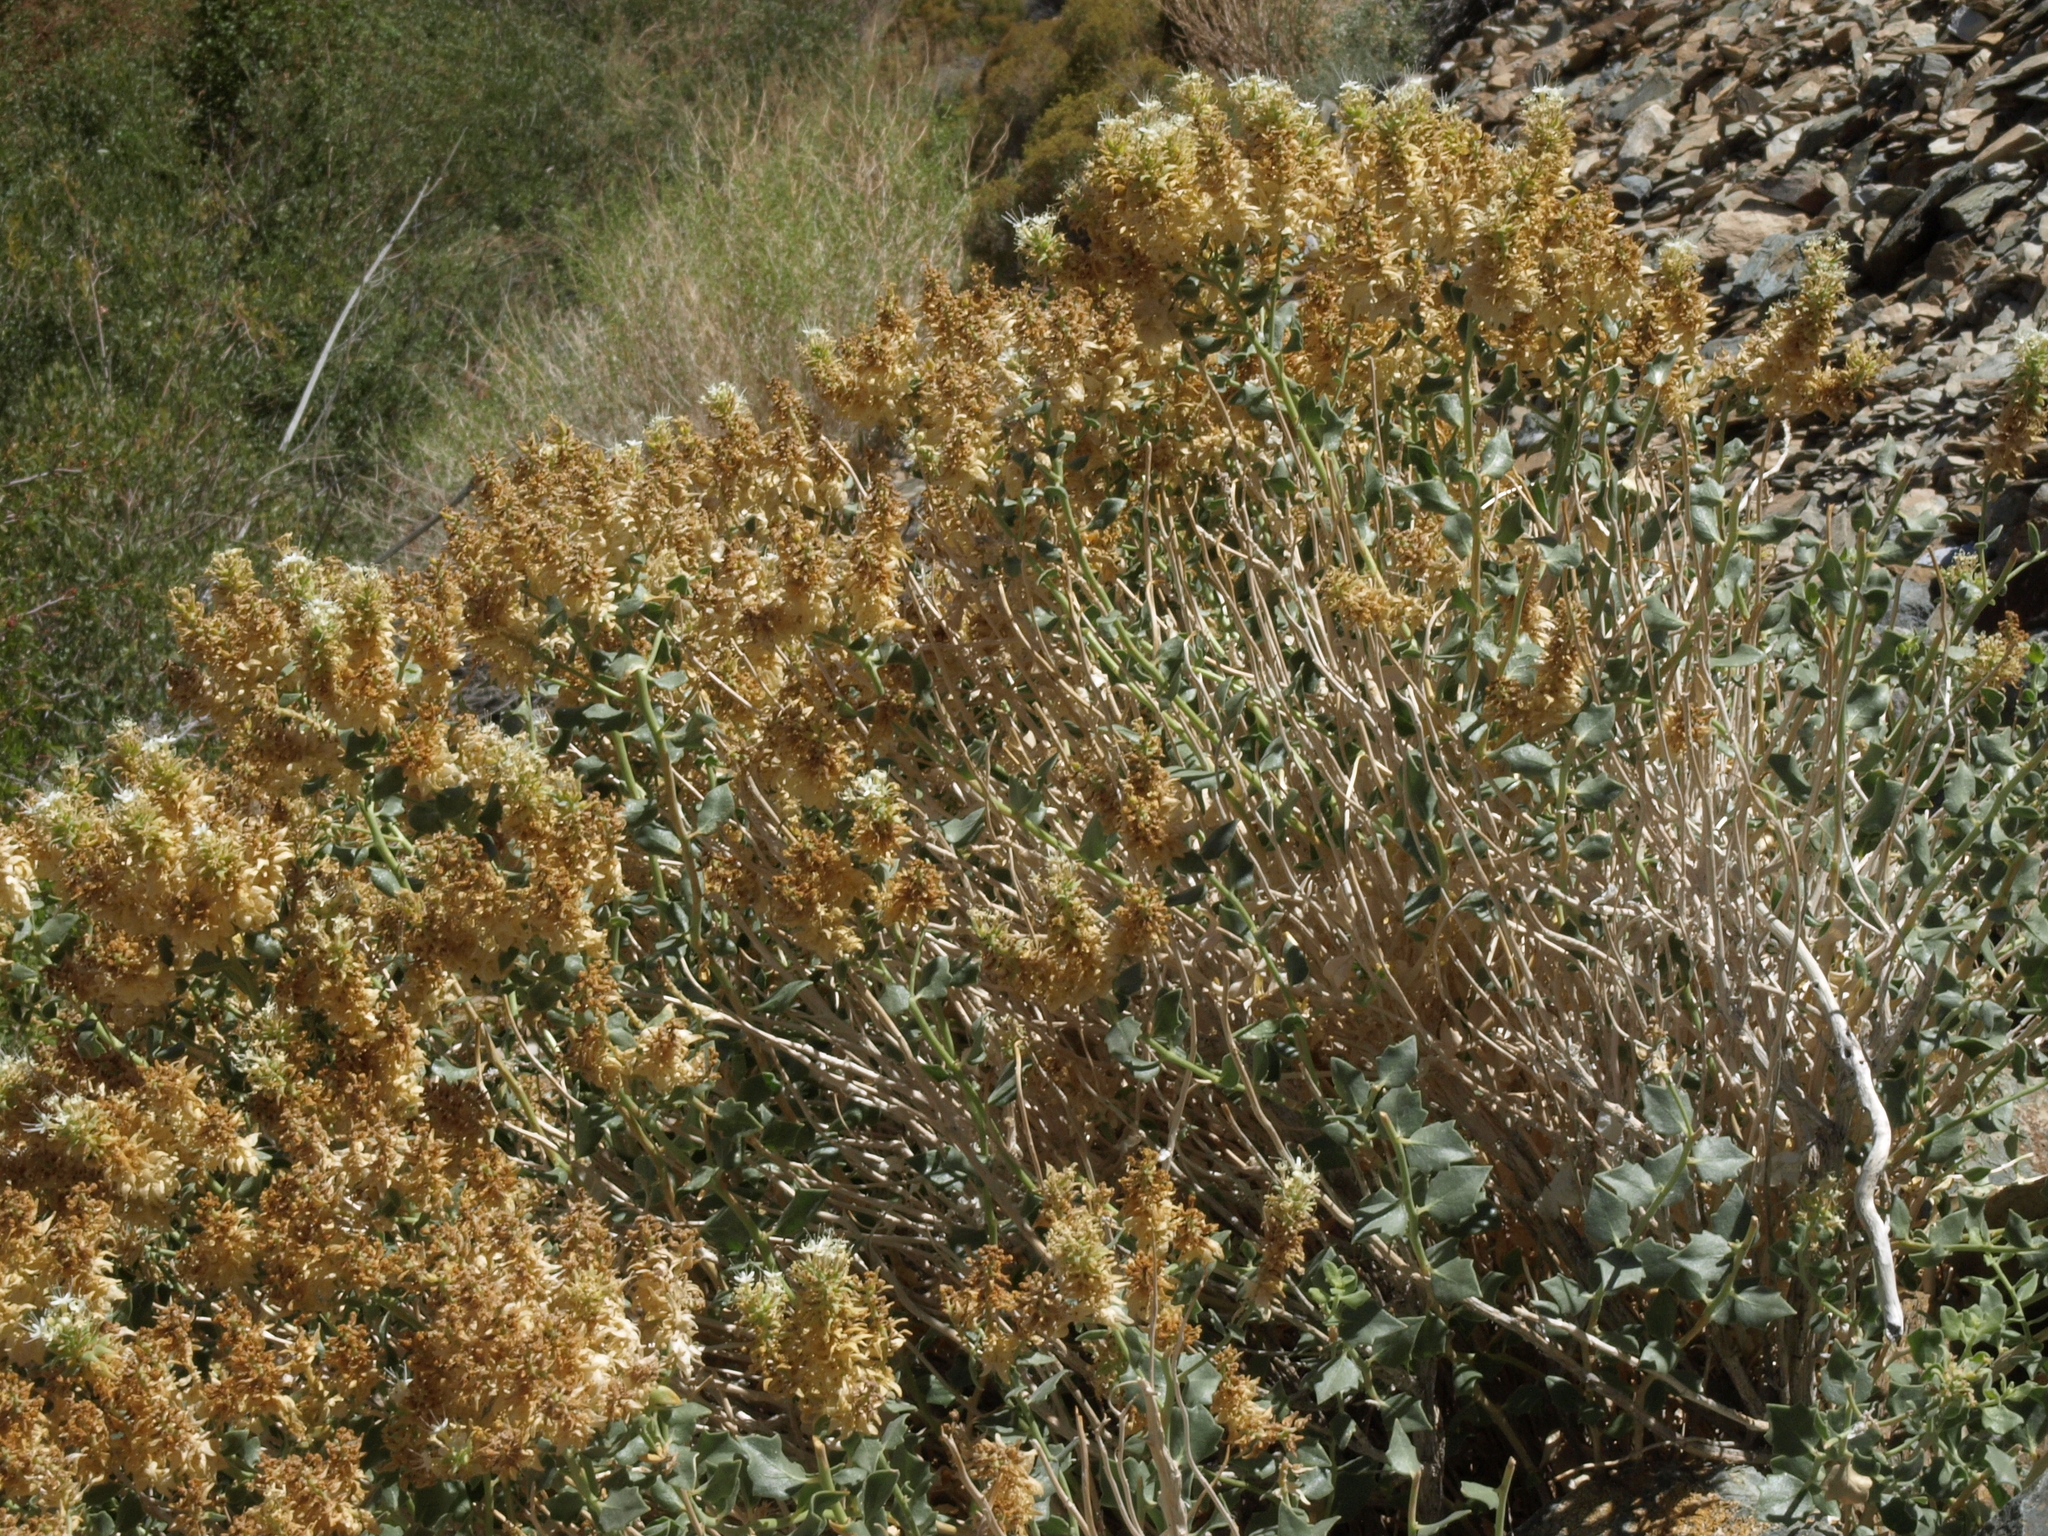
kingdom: Plantae
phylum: Tracheophyta
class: Magnoliopsida
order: Cornales
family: Loasaceae
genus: Petalonyx
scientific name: Petalonyx nitidus
